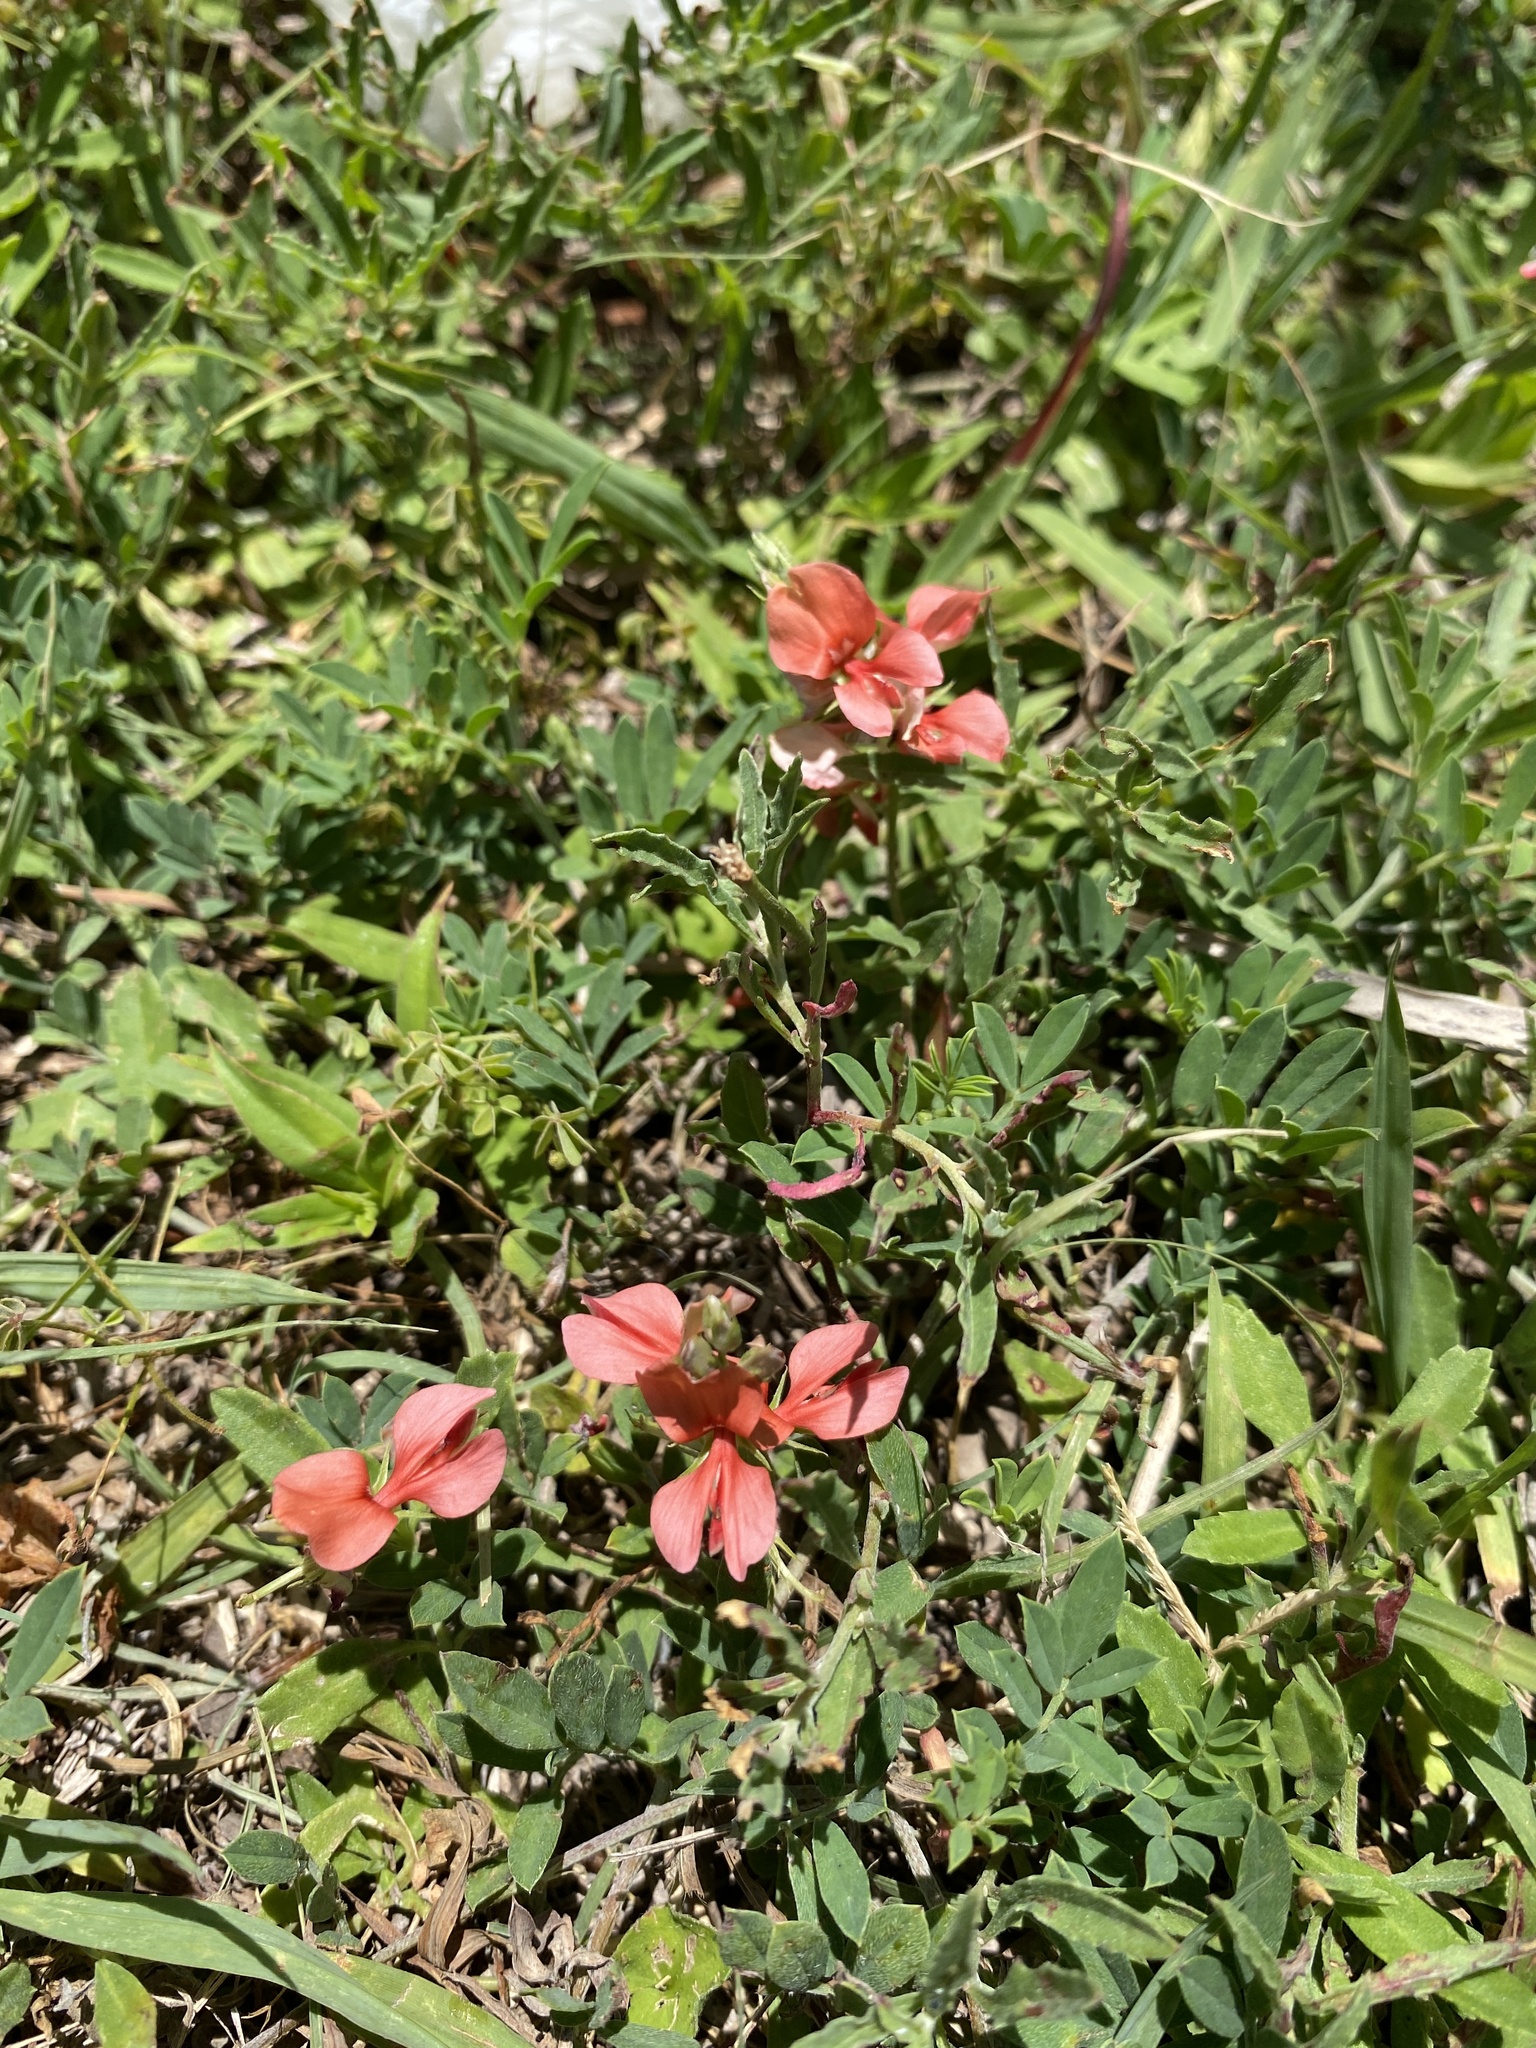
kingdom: Plantae
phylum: Tracheophyta
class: Magnoliopsida
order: Fabales
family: Fabaceae
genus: Indigofera
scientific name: Indigofera miniata
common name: Coast indigo
